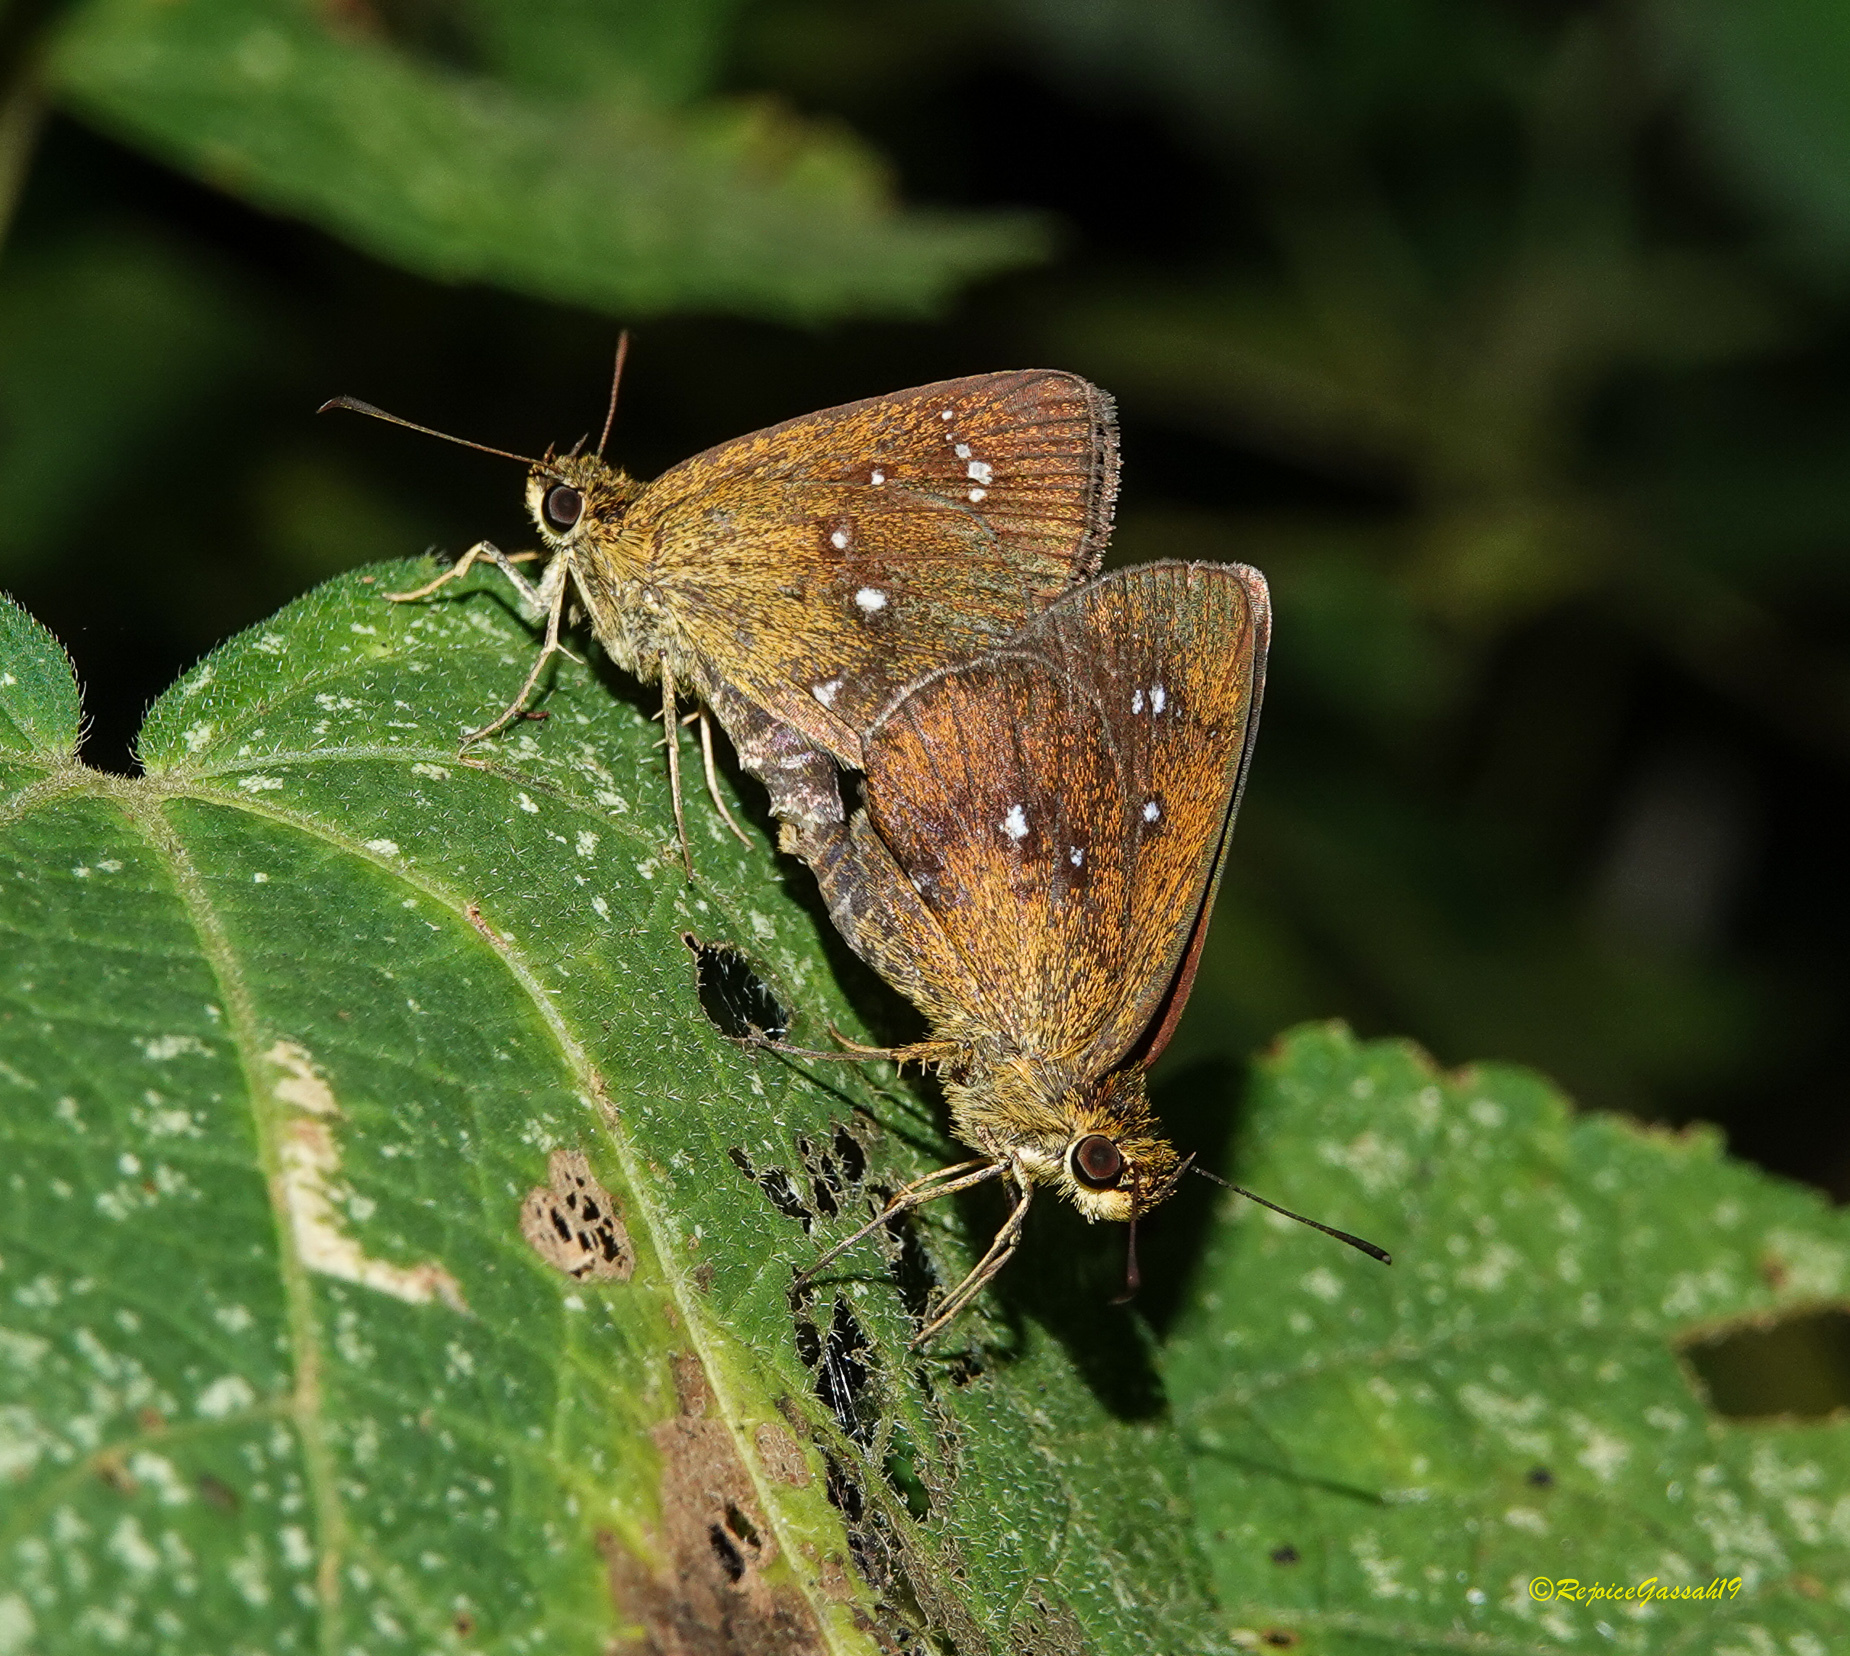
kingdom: Animalia
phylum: Arthropoda
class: Insecta
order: Lepidoptera
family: Hesperiidae
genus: Iambrix
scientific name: Iambrix salsala
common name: Chestnut bob
